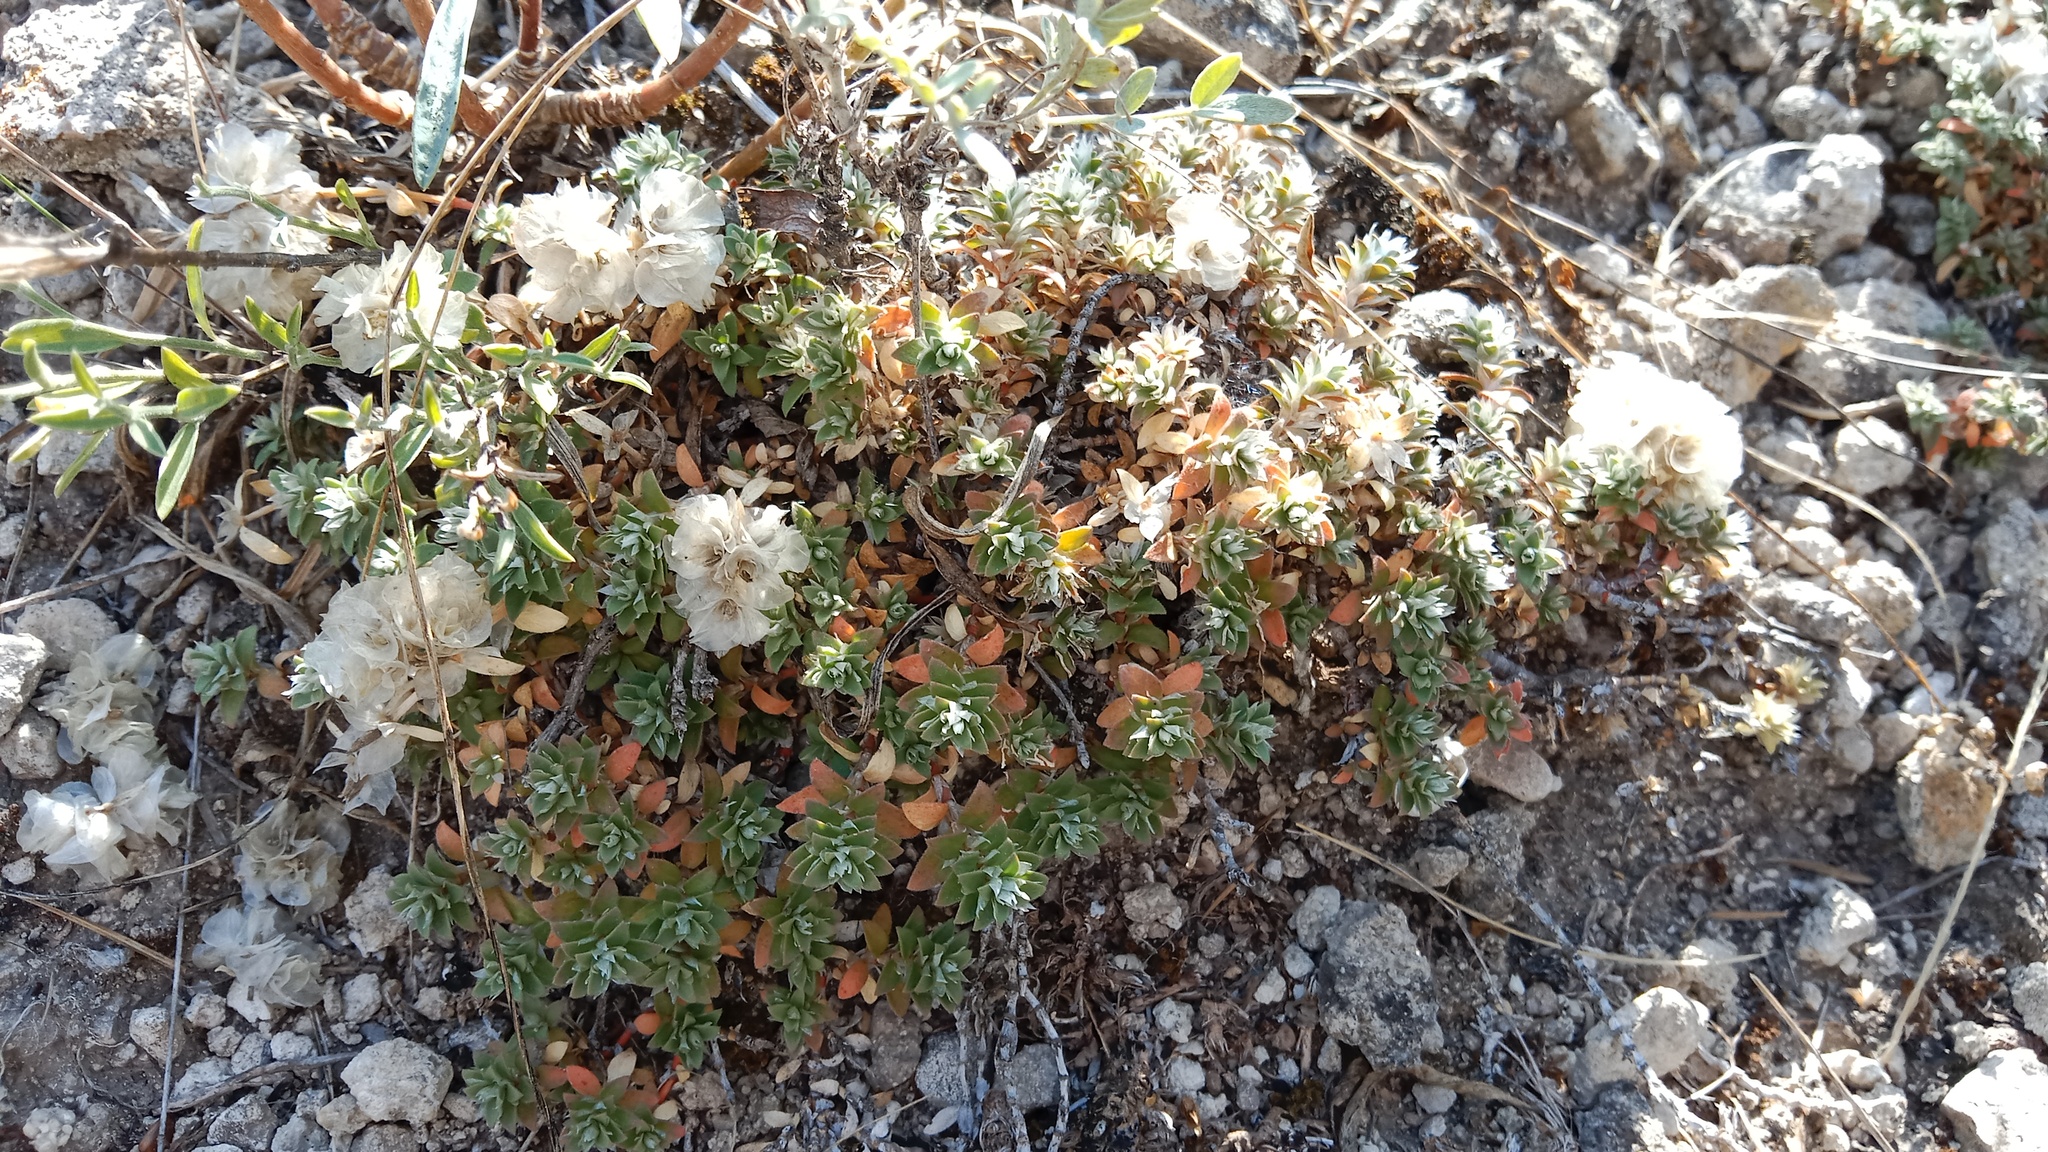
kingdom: Plantae
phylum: Tracheophyta
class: Magnoliopsida
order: Caryophyllales
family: Caryophyllaceae
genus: Paronychia
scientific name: Paronychia cephalotes
